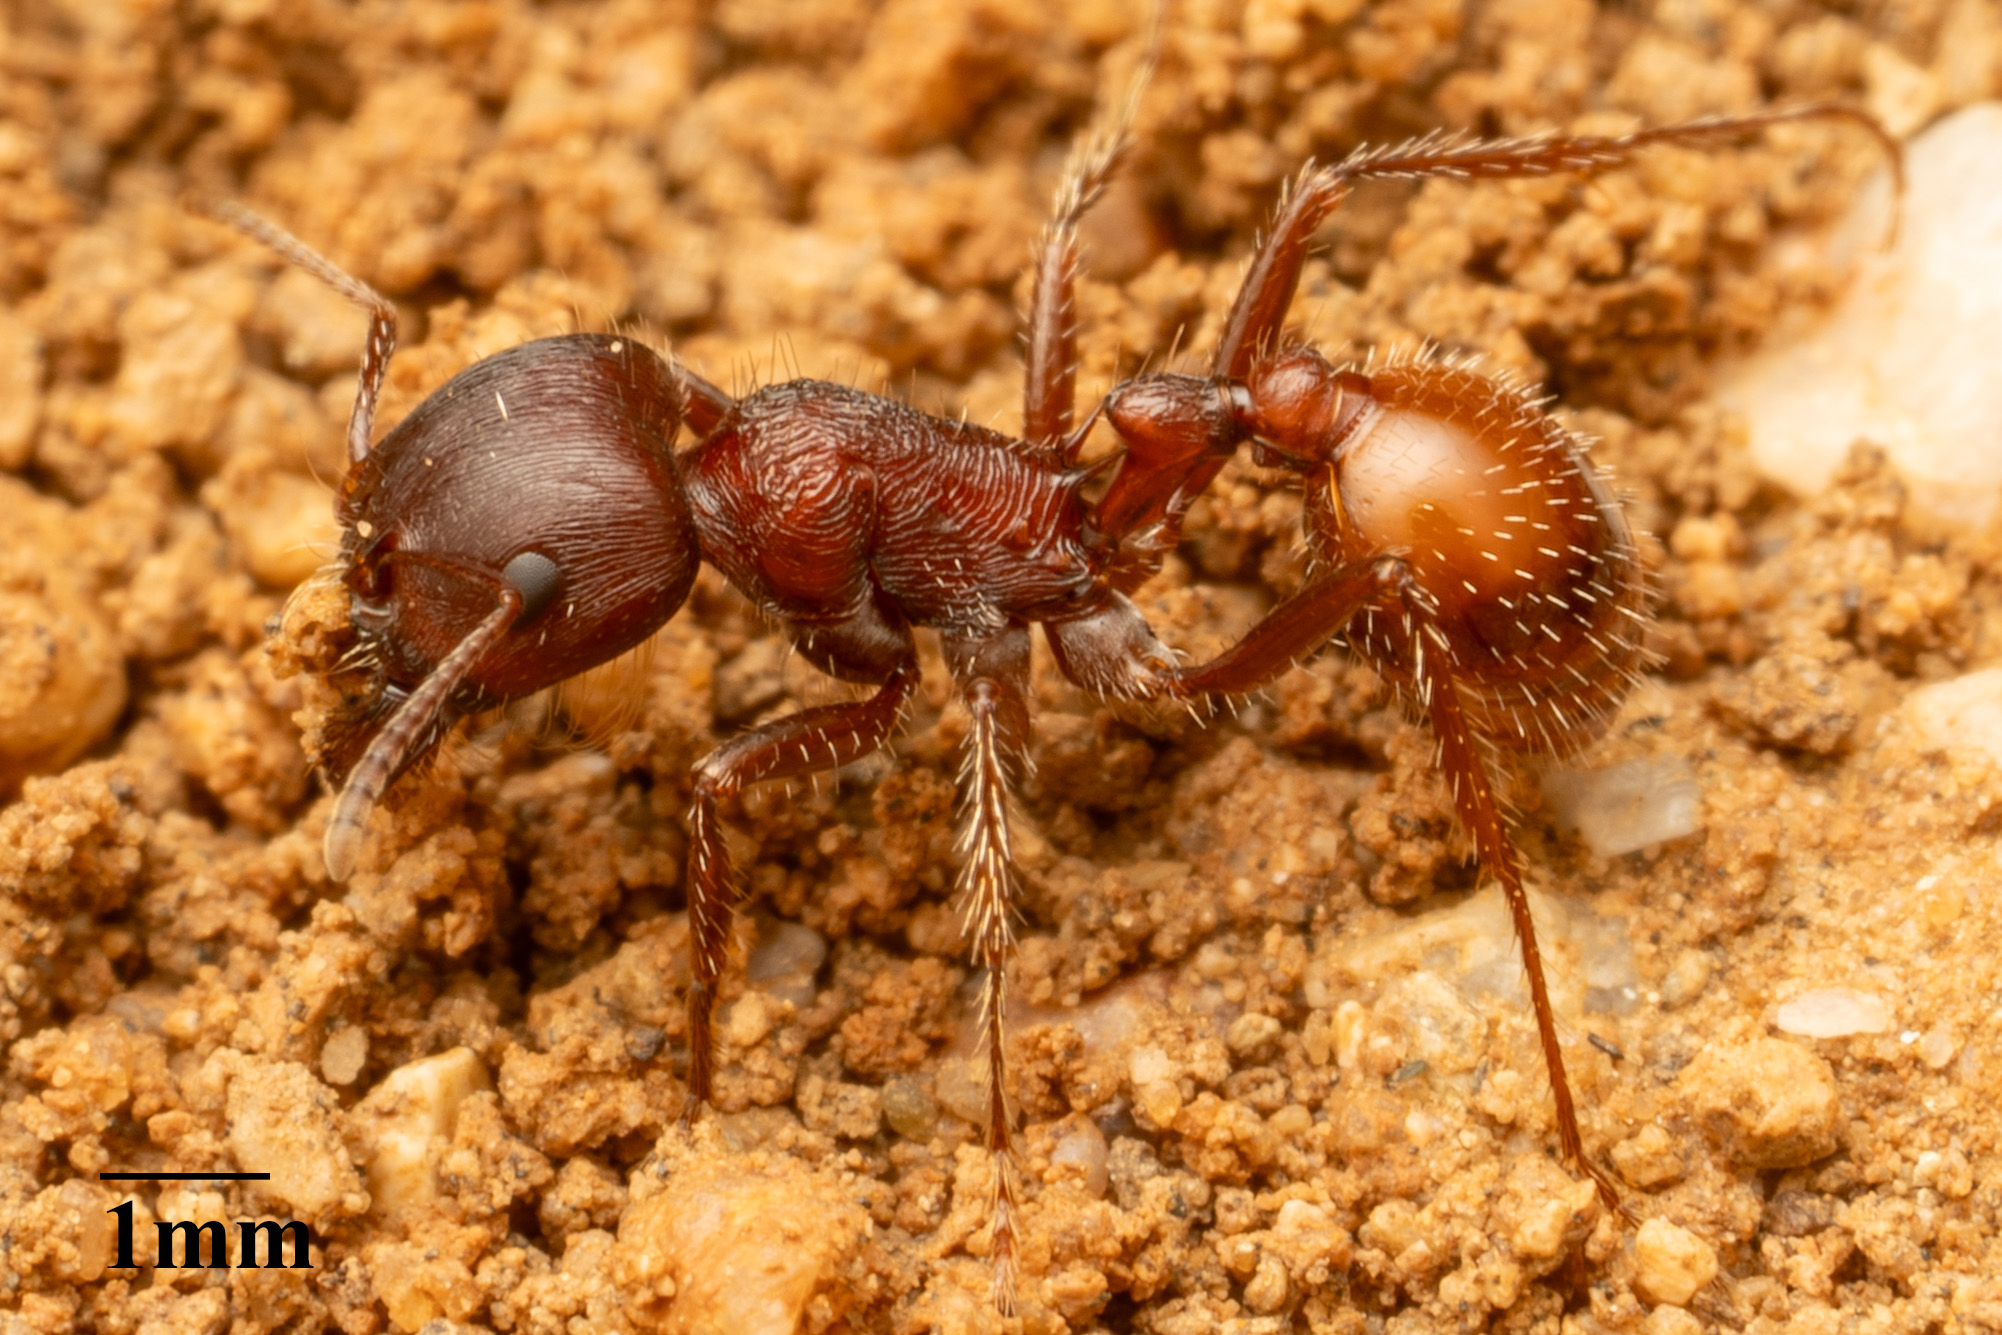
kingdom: Animalia
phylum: Arthropoda
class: Insecta
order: Hymenoptera
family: Formicidae
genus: Pogonomyrmex
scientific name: Pogonomyrmex rugosus
